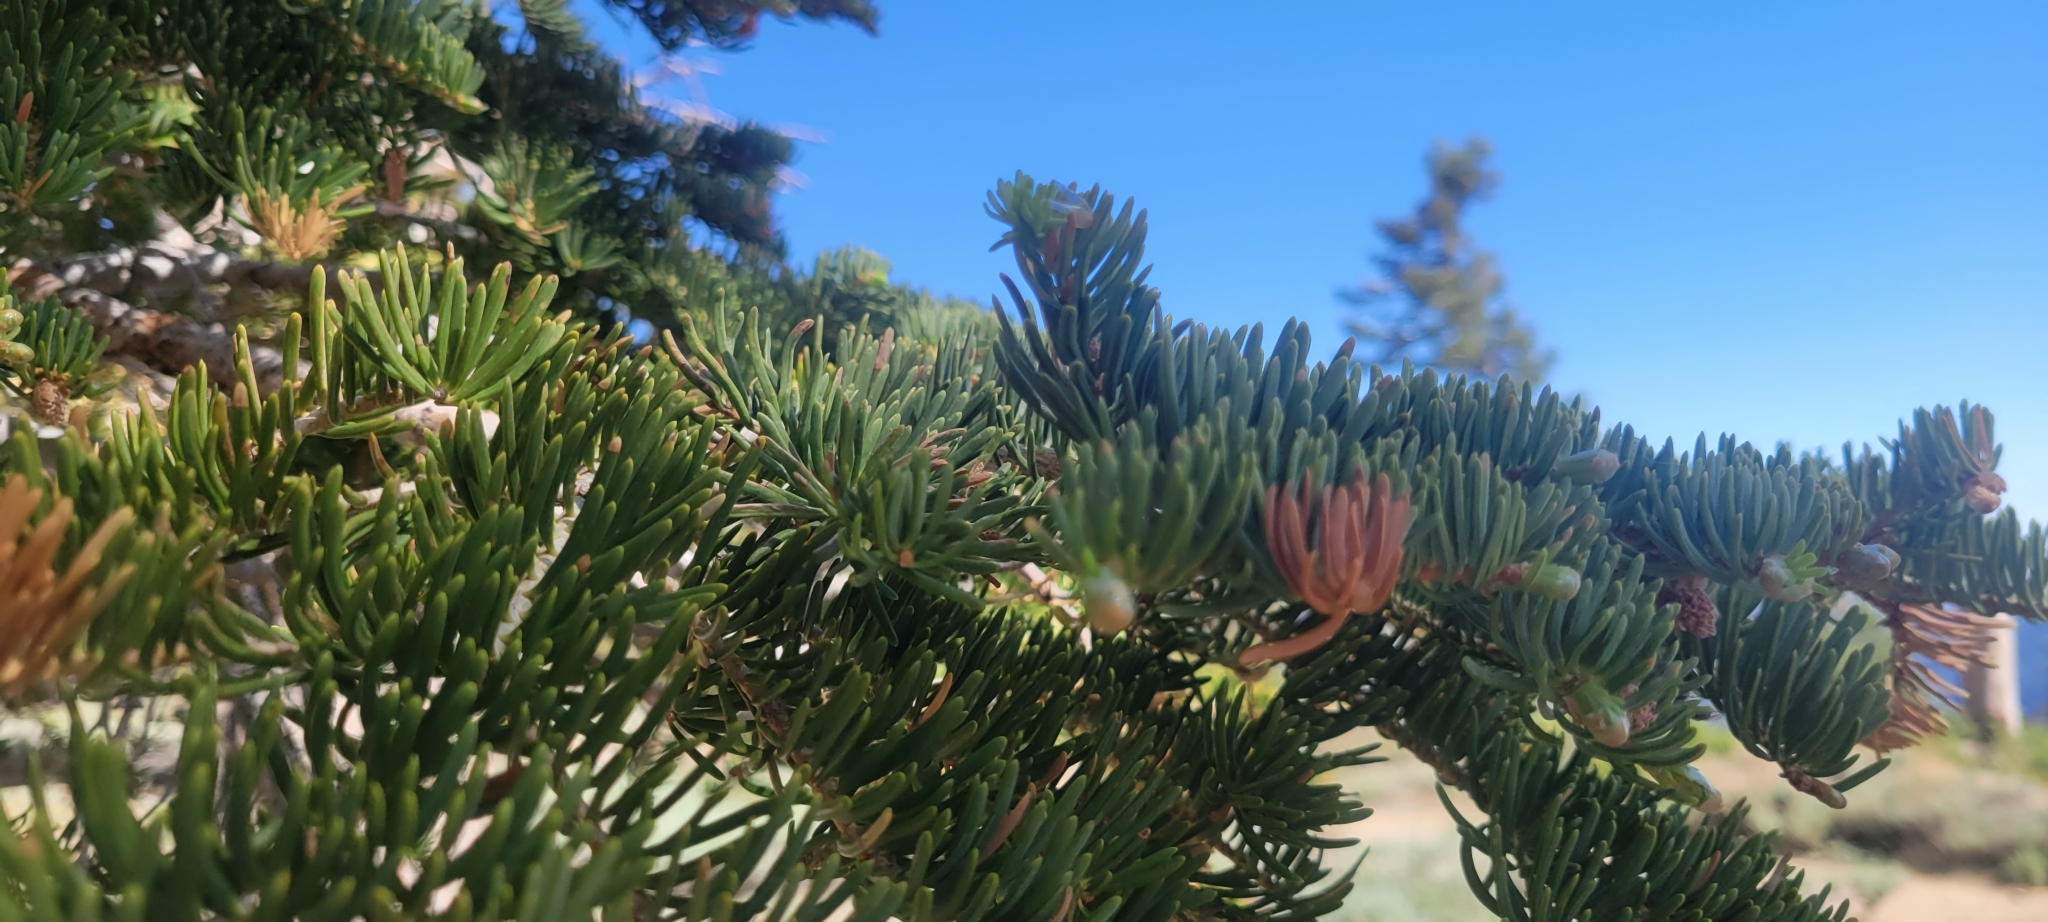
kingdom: Plantae
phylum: Tracheophyta
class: Pinopsida
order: Pinales
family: Pinaceae
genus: Abies
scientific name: Abies concolor
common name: Colorado fir
